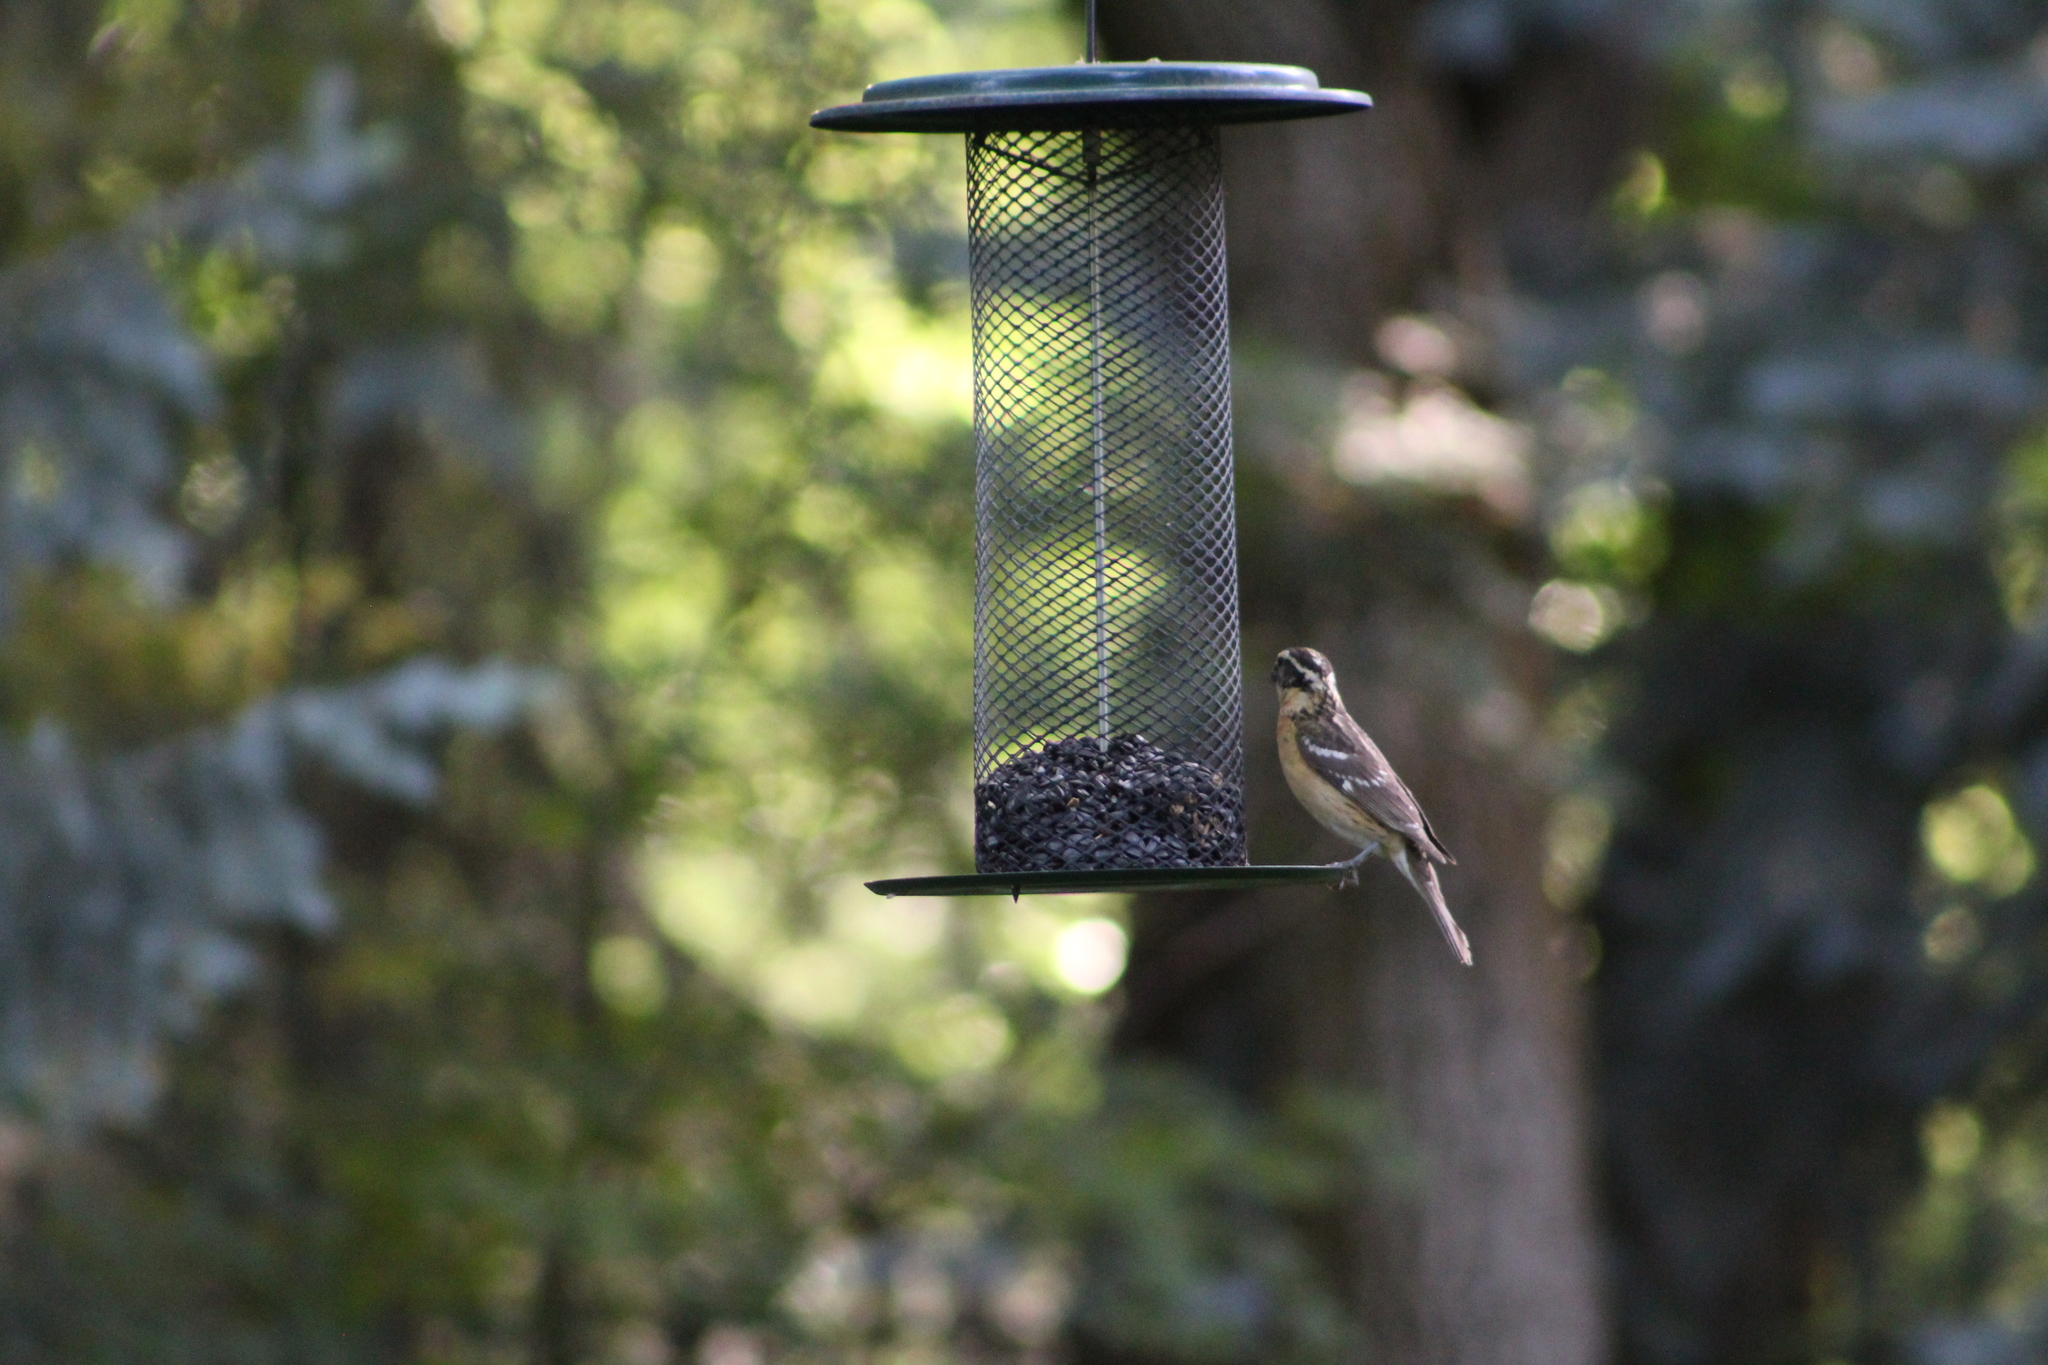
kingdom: Animalia
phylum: Chordata
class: Aves
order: Passeriformes
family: Cardinalidae
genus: Pheucticus
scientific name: Pheucticus melanocephalus
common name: Black-headed grosbeak
